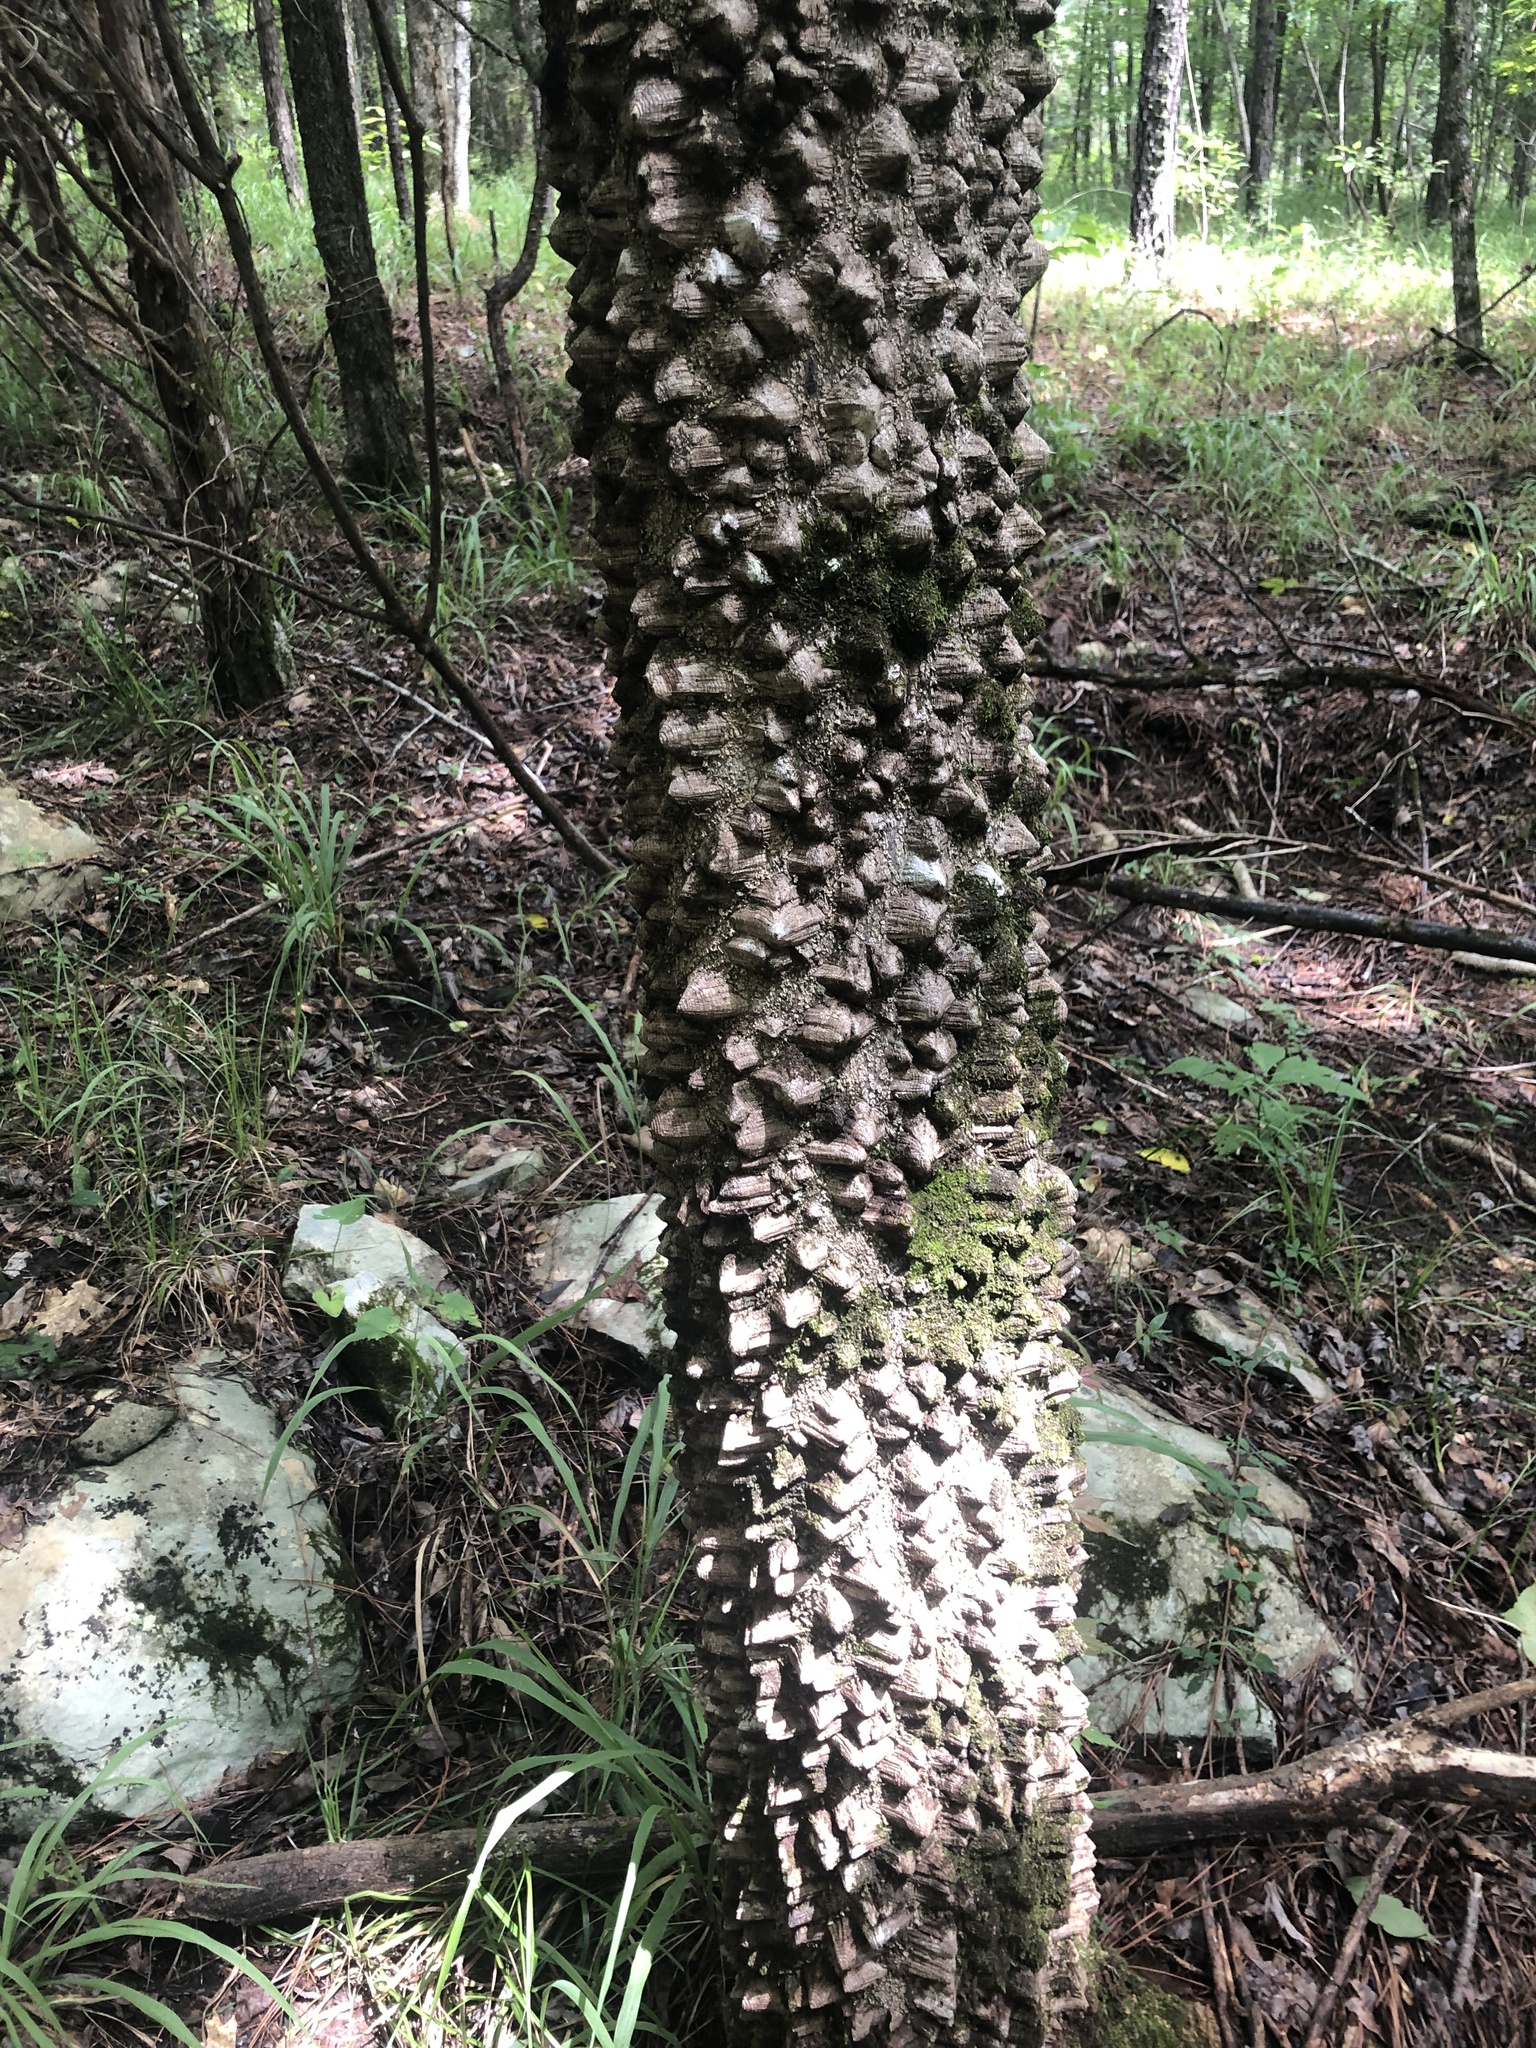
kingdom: Plantae
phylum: Tracheophyta
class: Magnoliopsida
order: Sapindales
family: Rutaceae
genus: Zanthoxylum
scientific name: Zanthoxylum clava-herculis
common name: Hercules'-club
